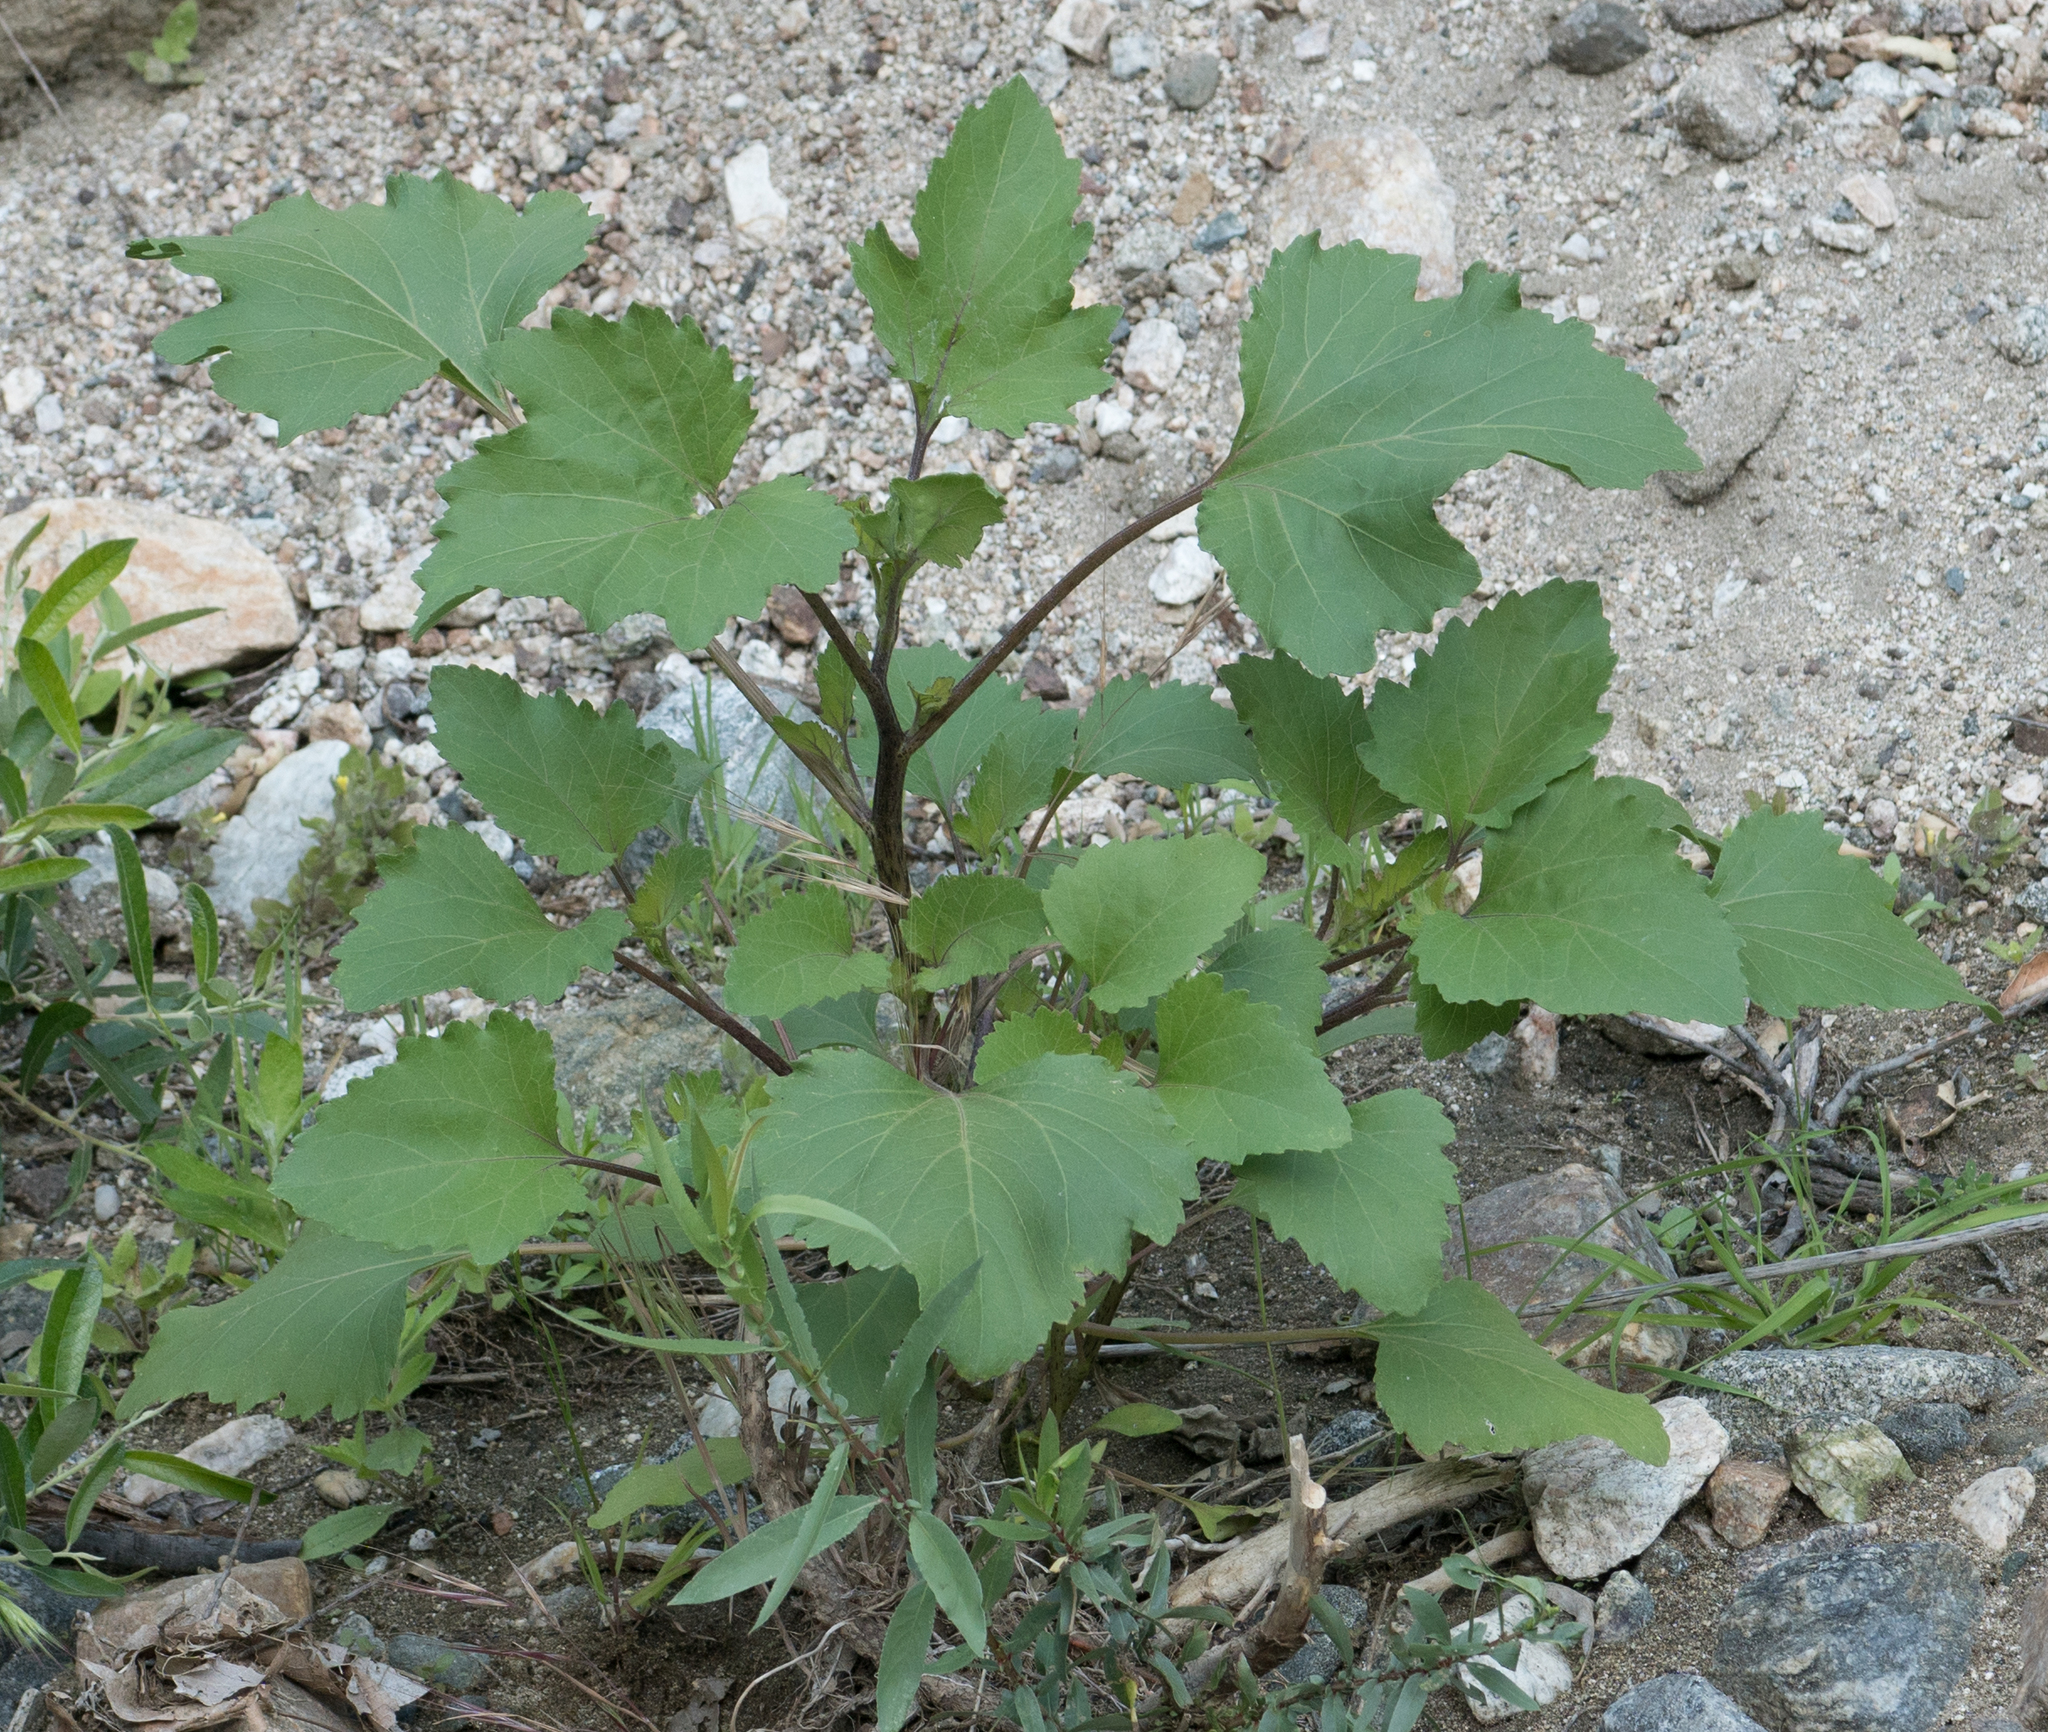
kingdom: Plantae
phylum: Tracheophyta
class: Magnoliopsida
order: Asterales
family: Asteraceae
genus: Xanthium
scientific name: Xanthium strumarium
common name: Rough cocklebur
